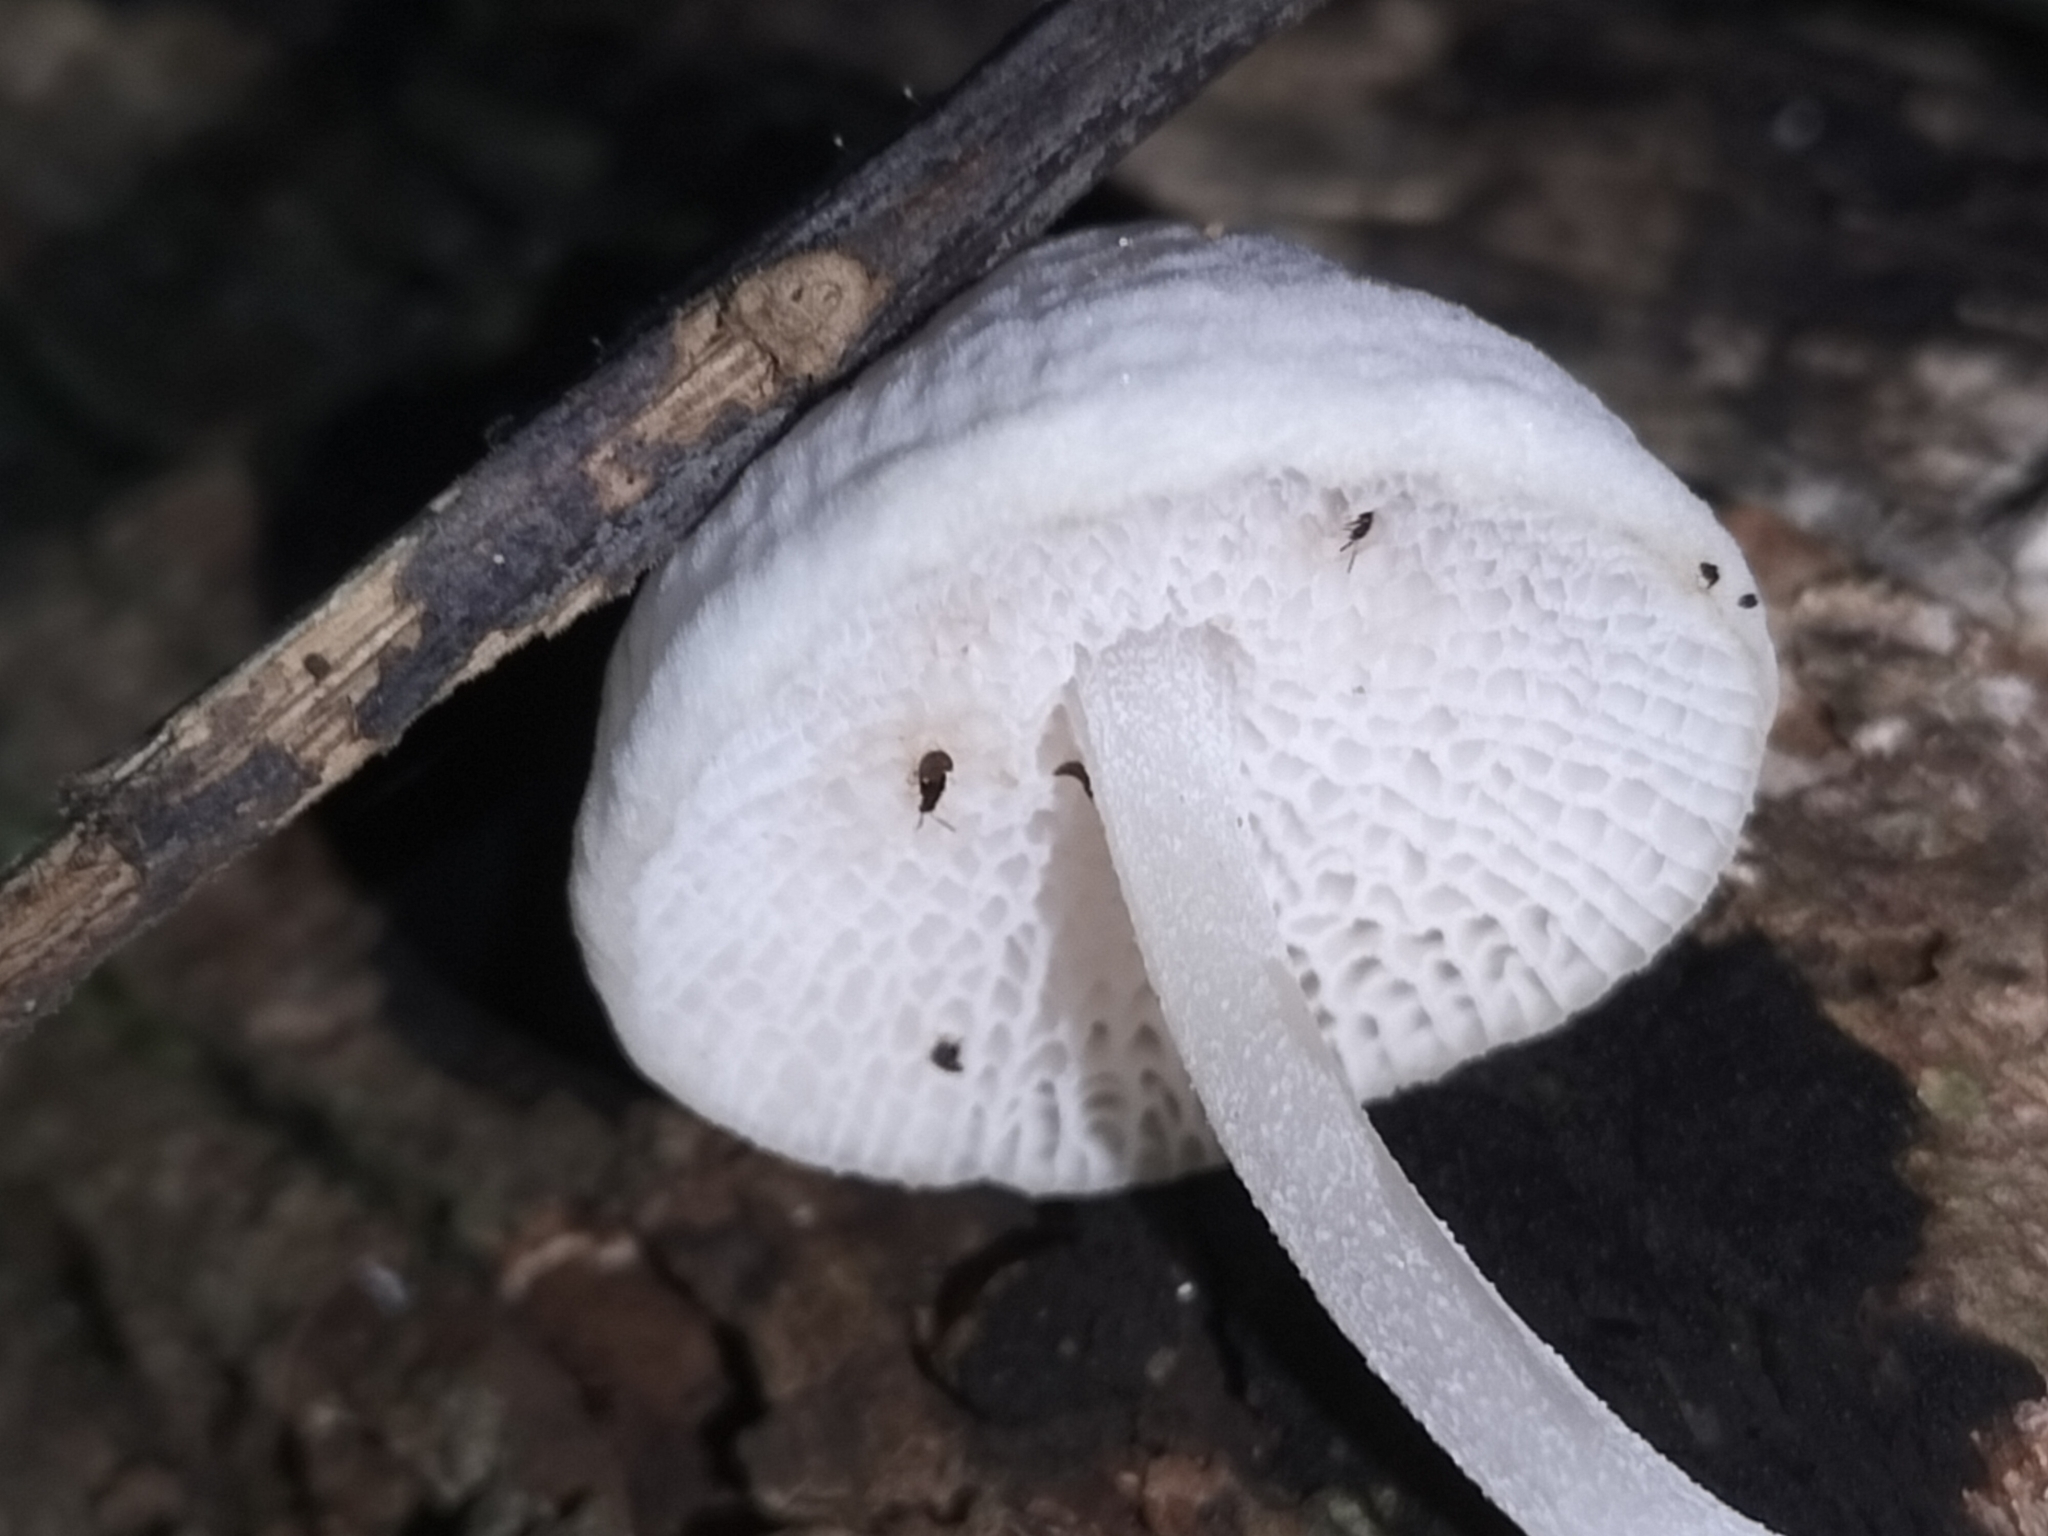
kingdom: Fungi
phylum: Basidiomycota
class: Agaricomycetes
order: Agaricales
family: Mycenaceae
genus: Filoboletus
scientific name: Filoboletus manipularis
